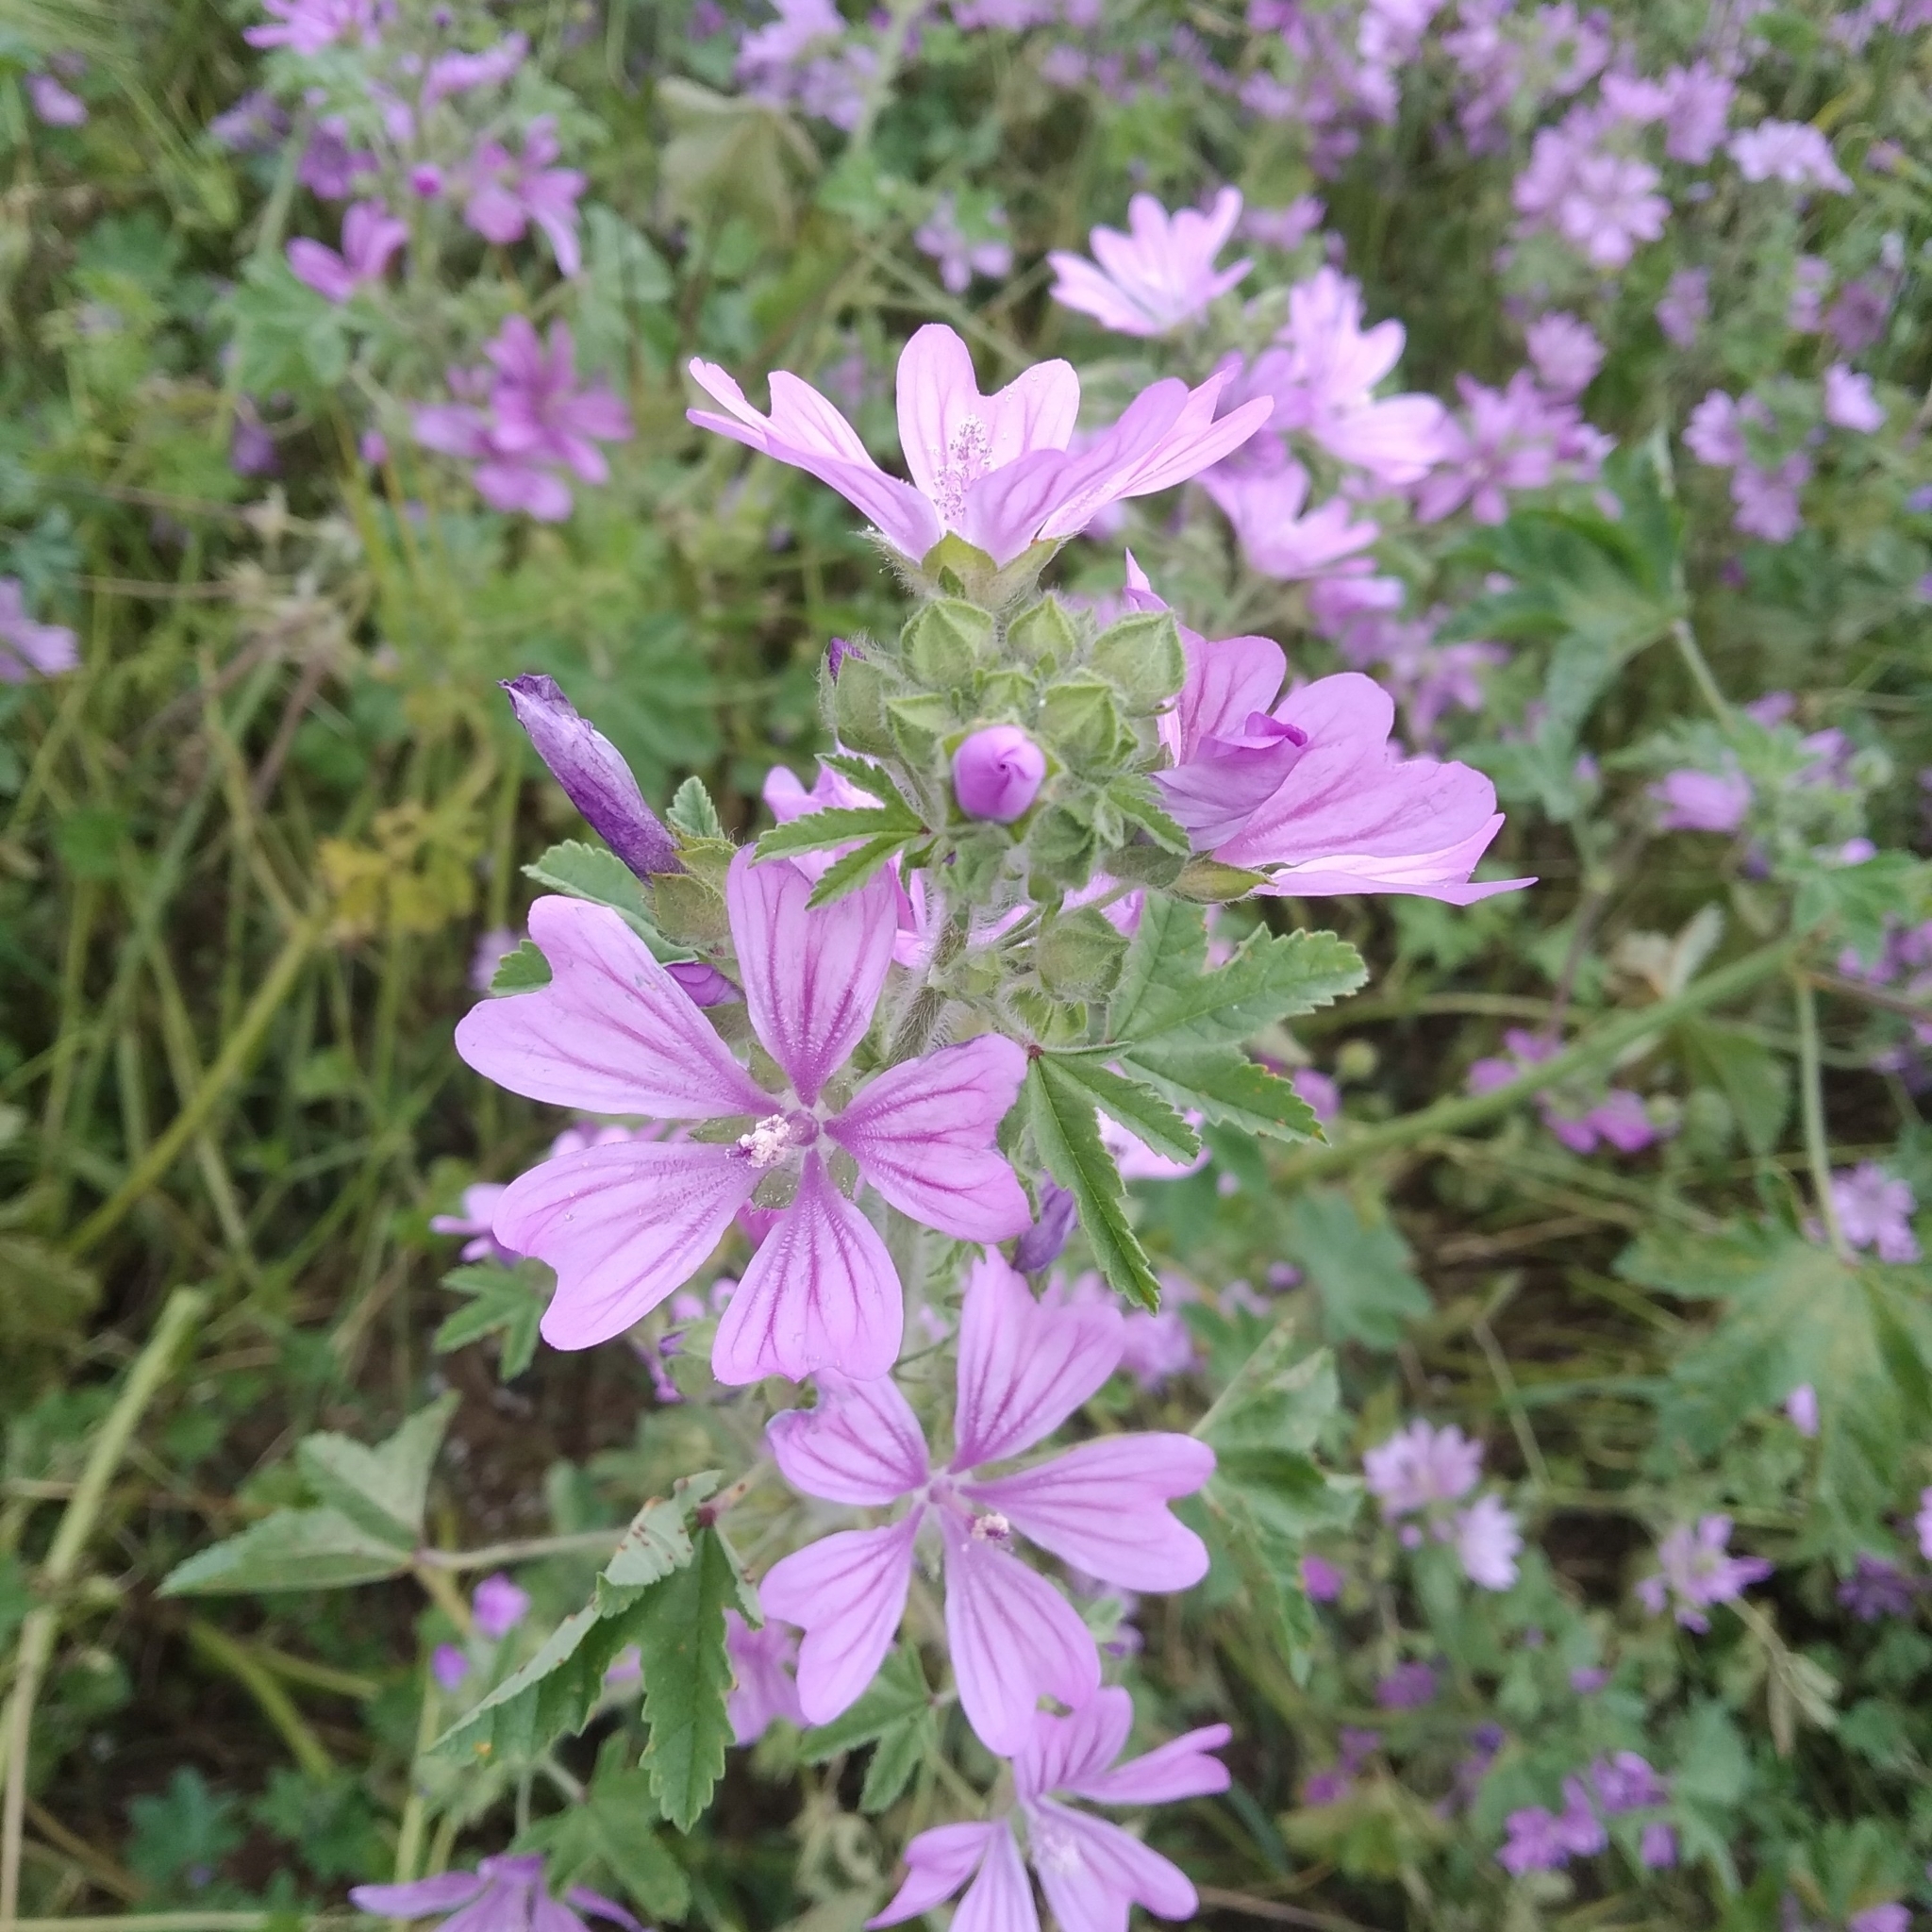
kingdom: Plantae
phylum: Tracheophyta
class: Magnoliopsida
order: Malvales
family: Malvaceae
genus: Malva
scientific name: Malva sylvestris
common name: Common mallow
